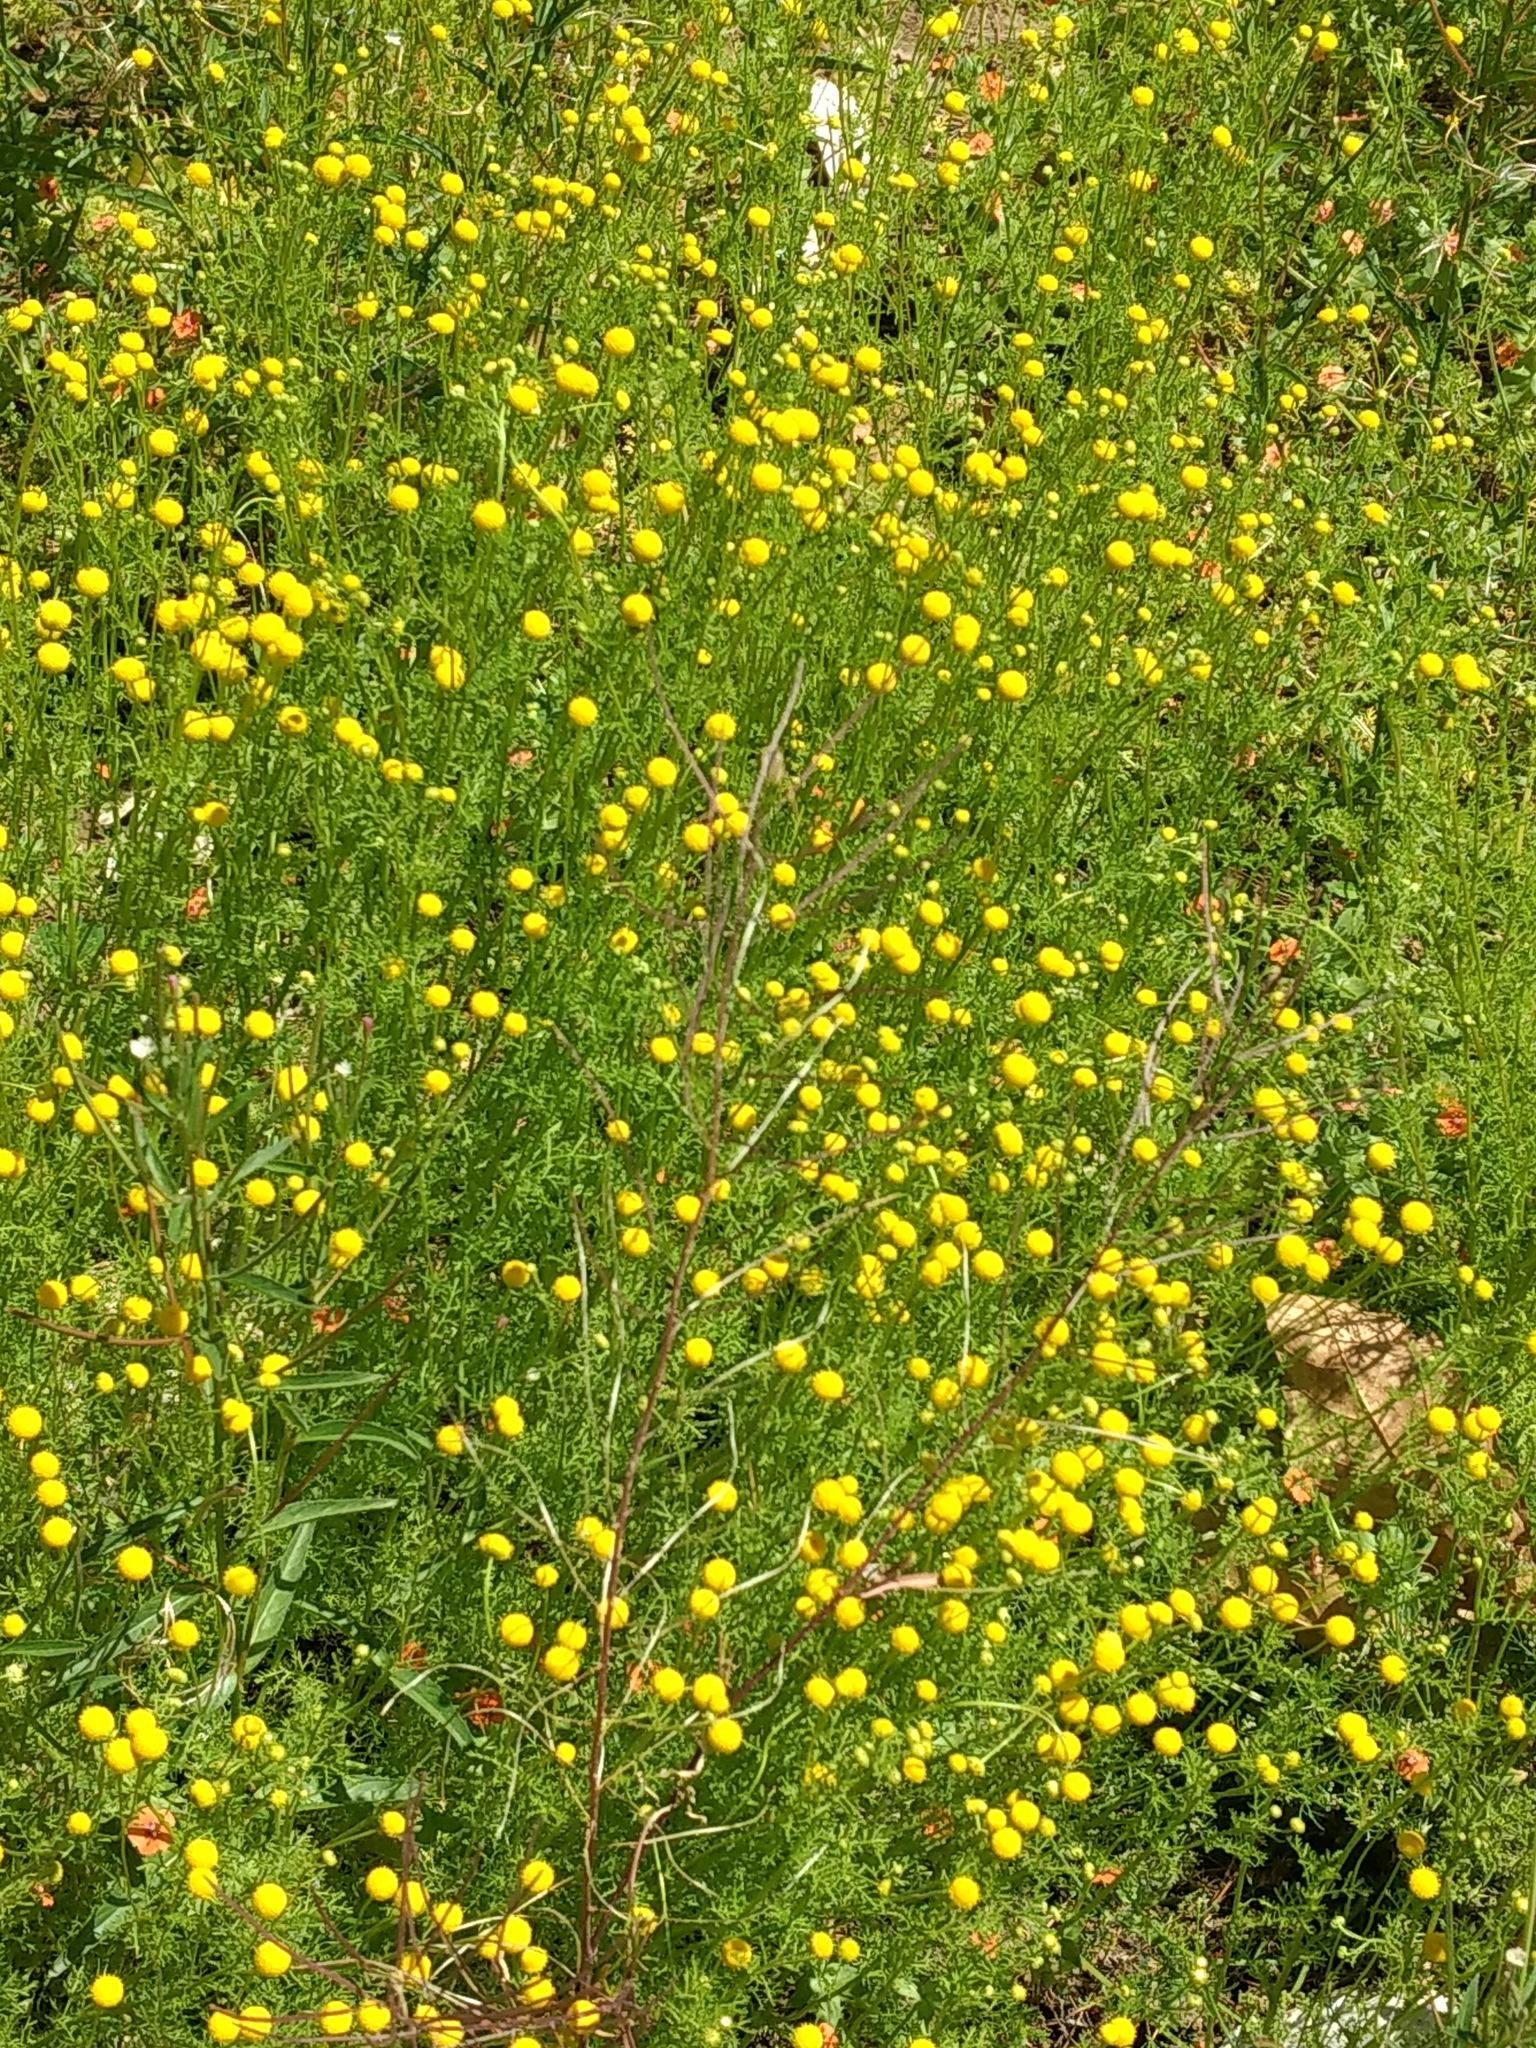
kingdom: Plantae
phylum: Tracheophyta
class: Magnoliopsida
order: Asterales
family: Asteraceae
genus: Oncosiphon
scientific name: Oncosiphon pilulifer
